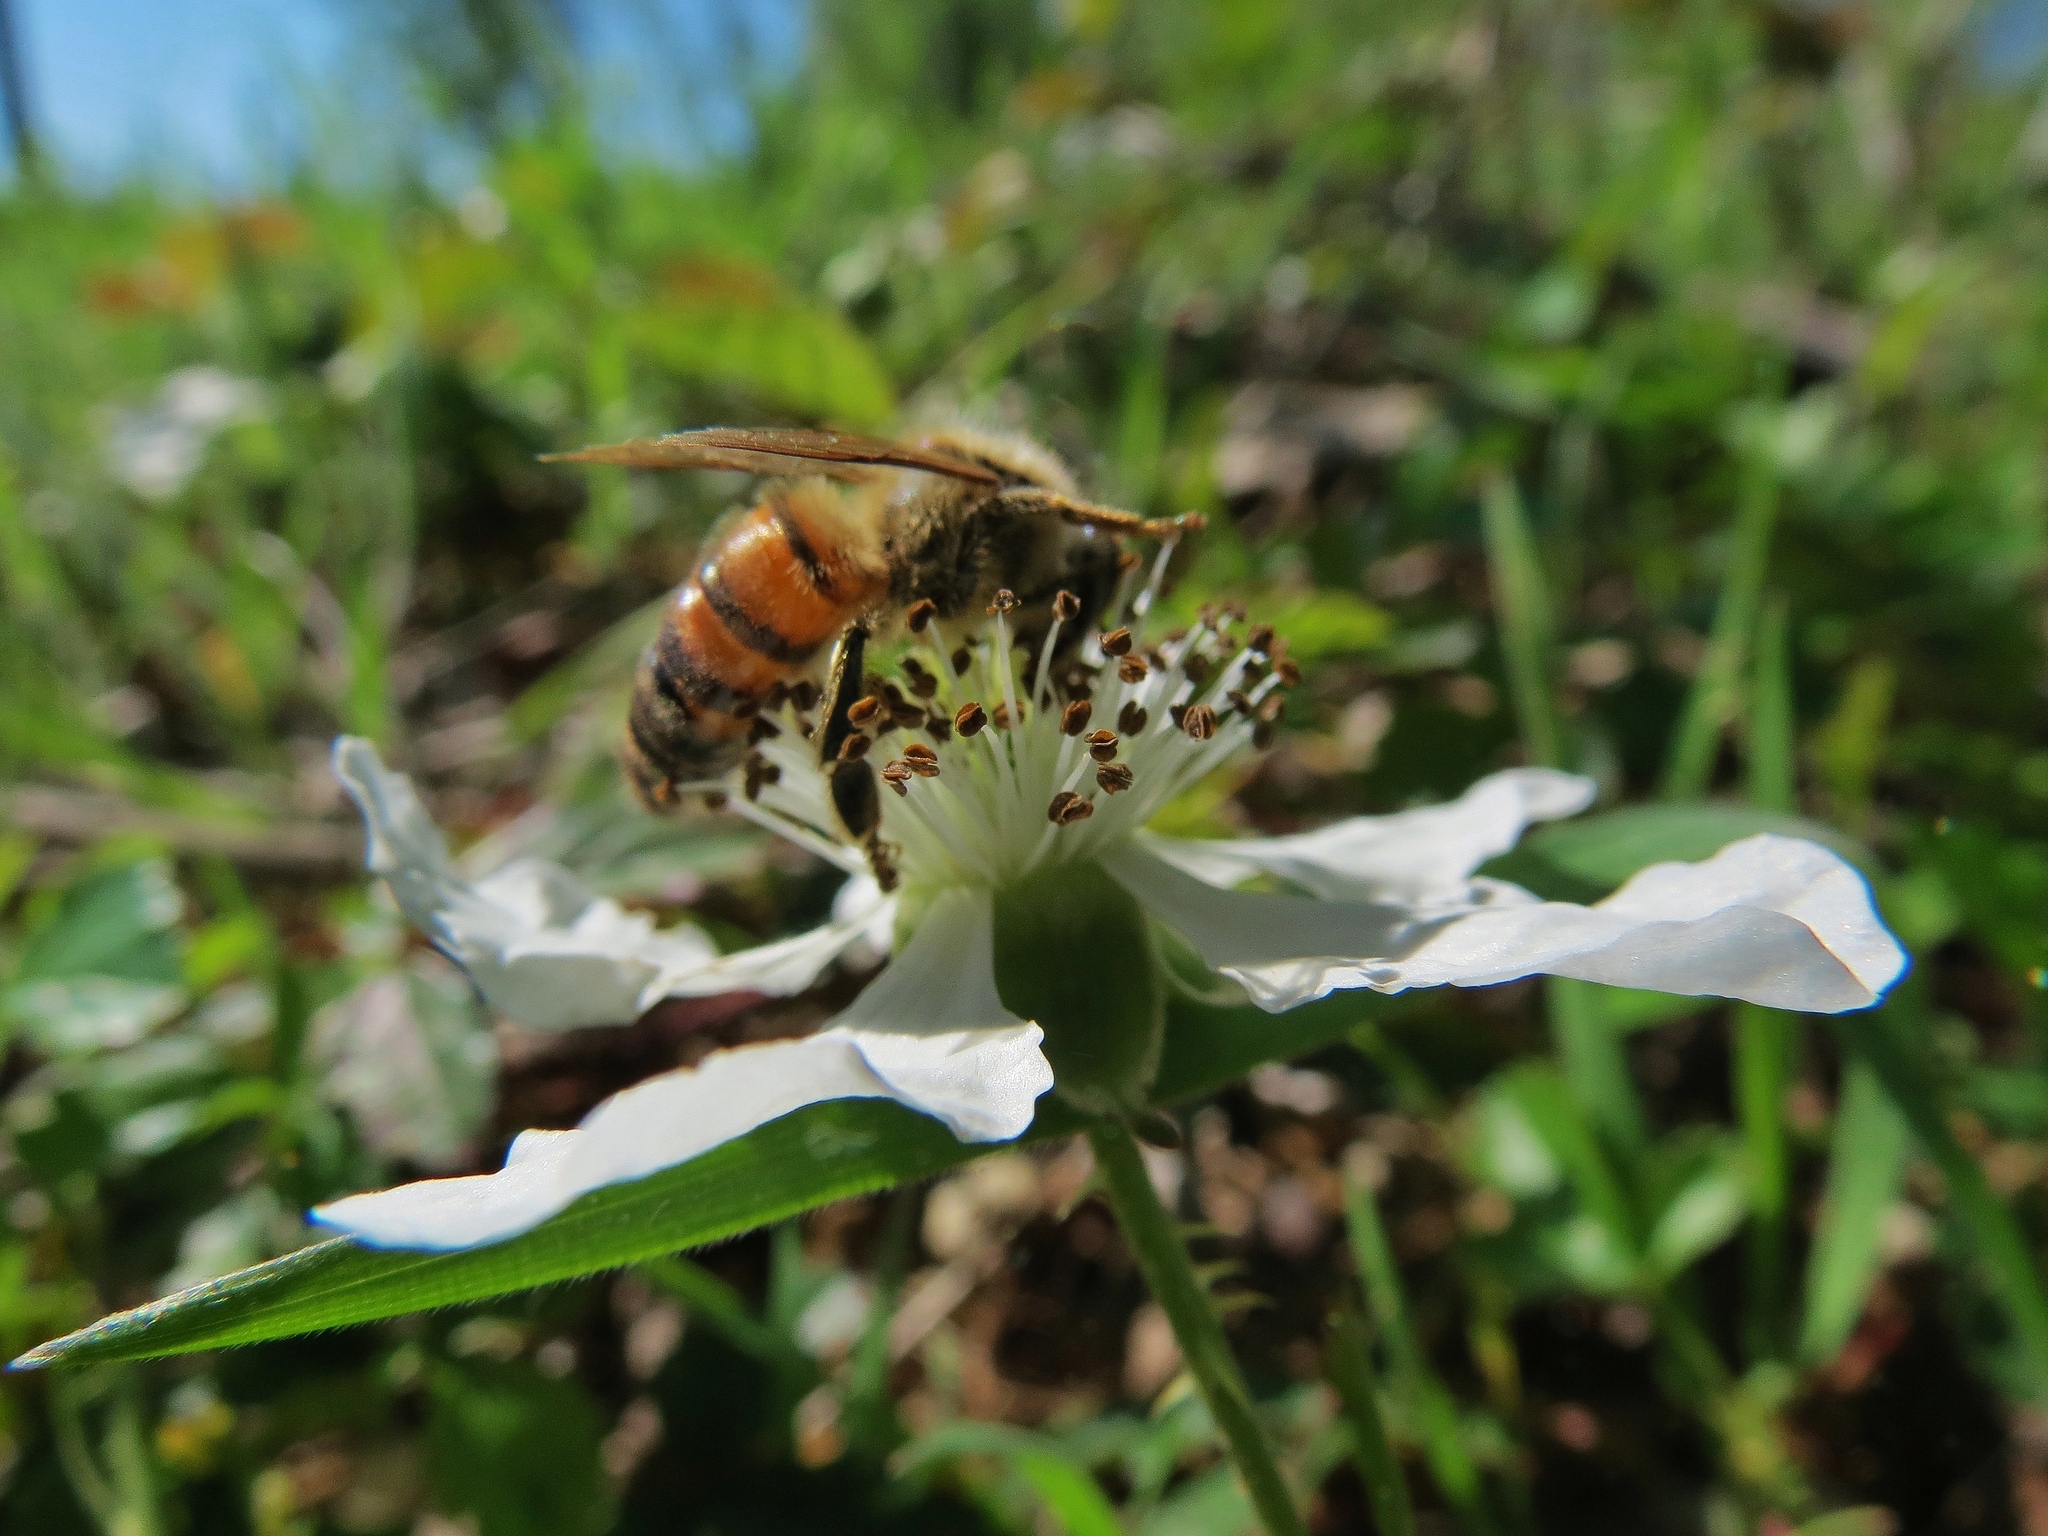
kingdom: Animalia
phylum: Arthropoda
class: Insecta
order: Hymenoptera
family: Apidae
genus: Apis
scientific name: Apis mellifera
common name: Honey bee
